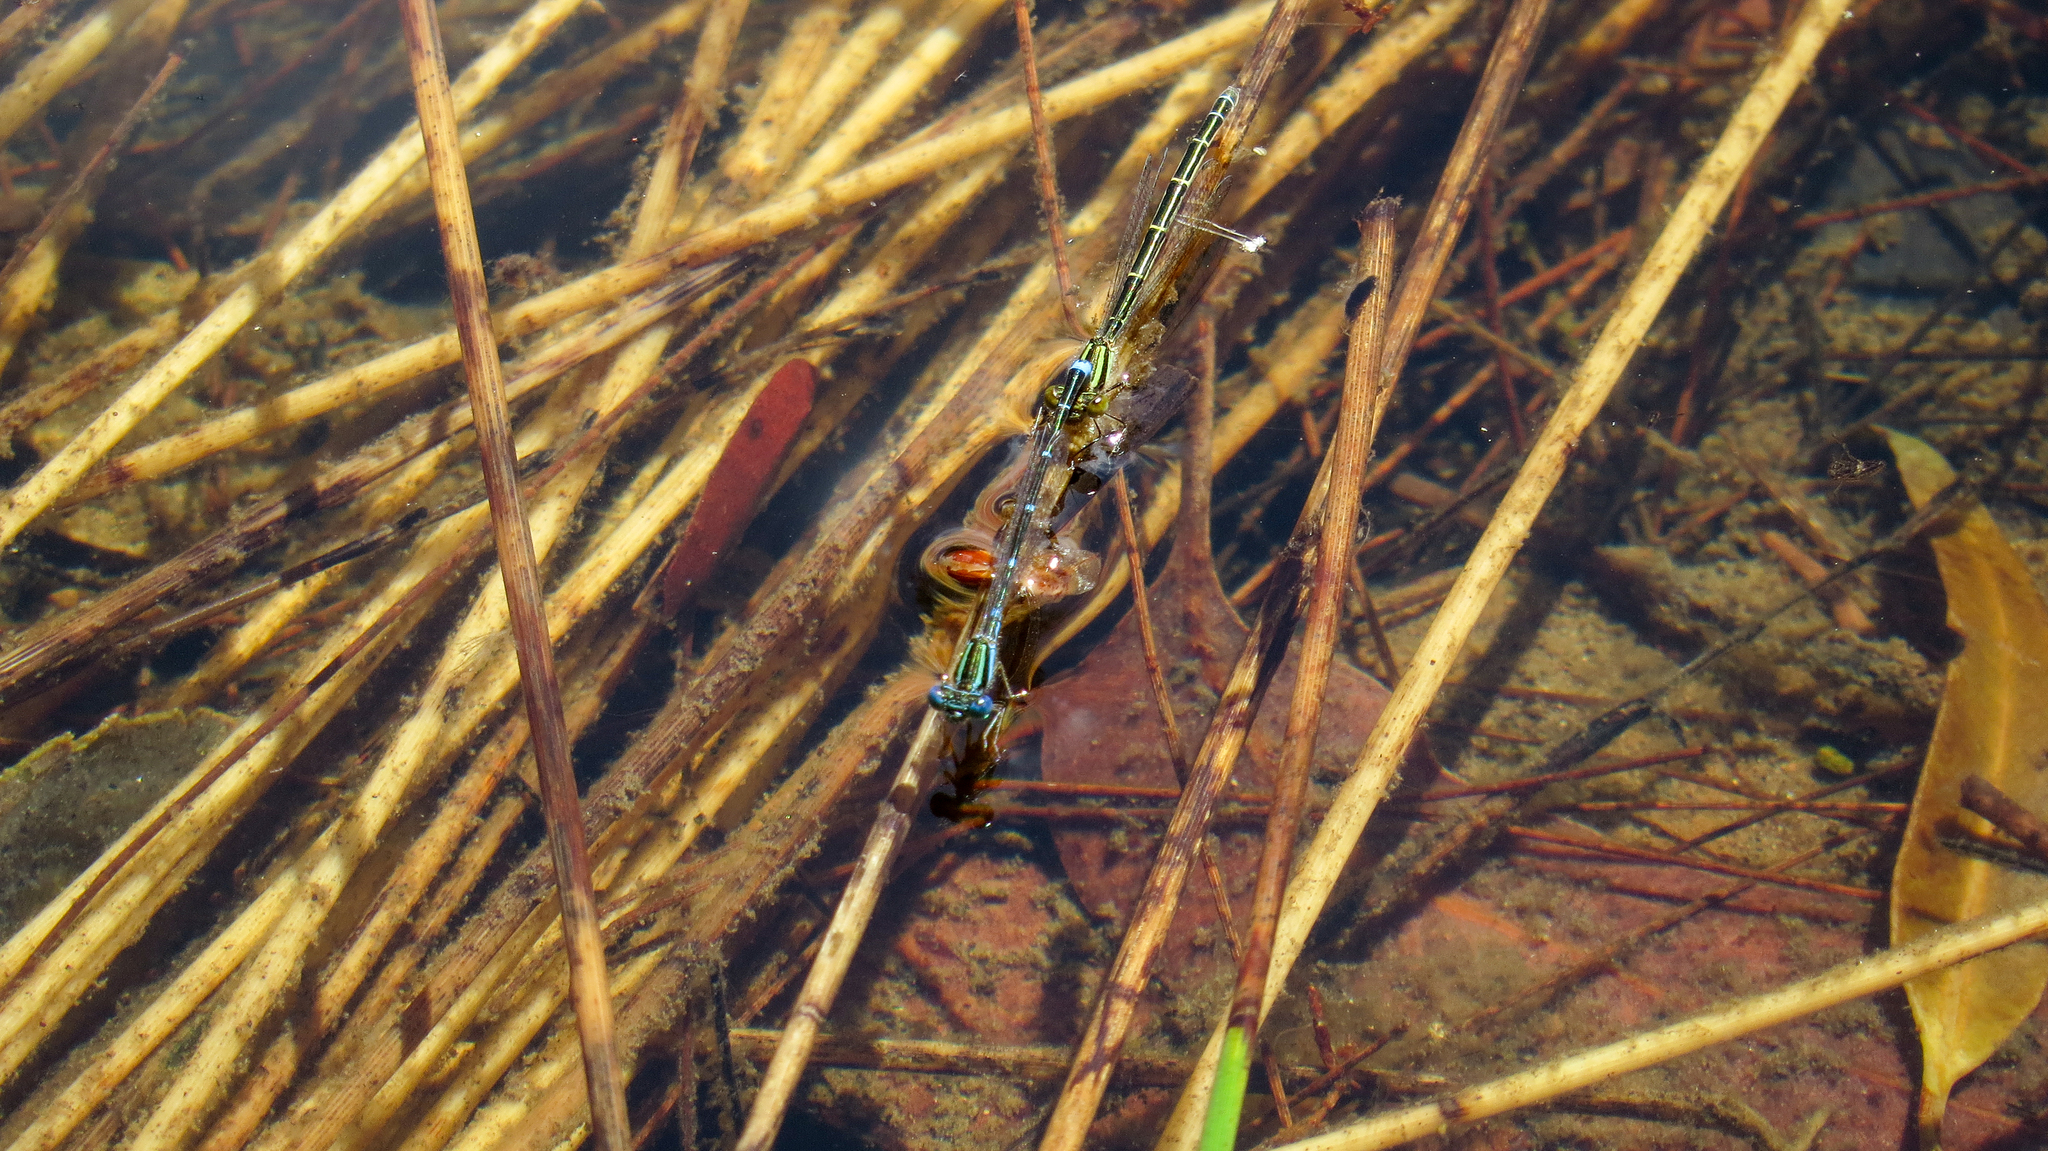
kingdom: Animalia
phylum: Arthropoda
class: Insecta
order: Odonata
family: Coenagrionidae
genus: Austroagrion
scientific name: Austroagrion watsoni
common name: Eastern billabongfly
